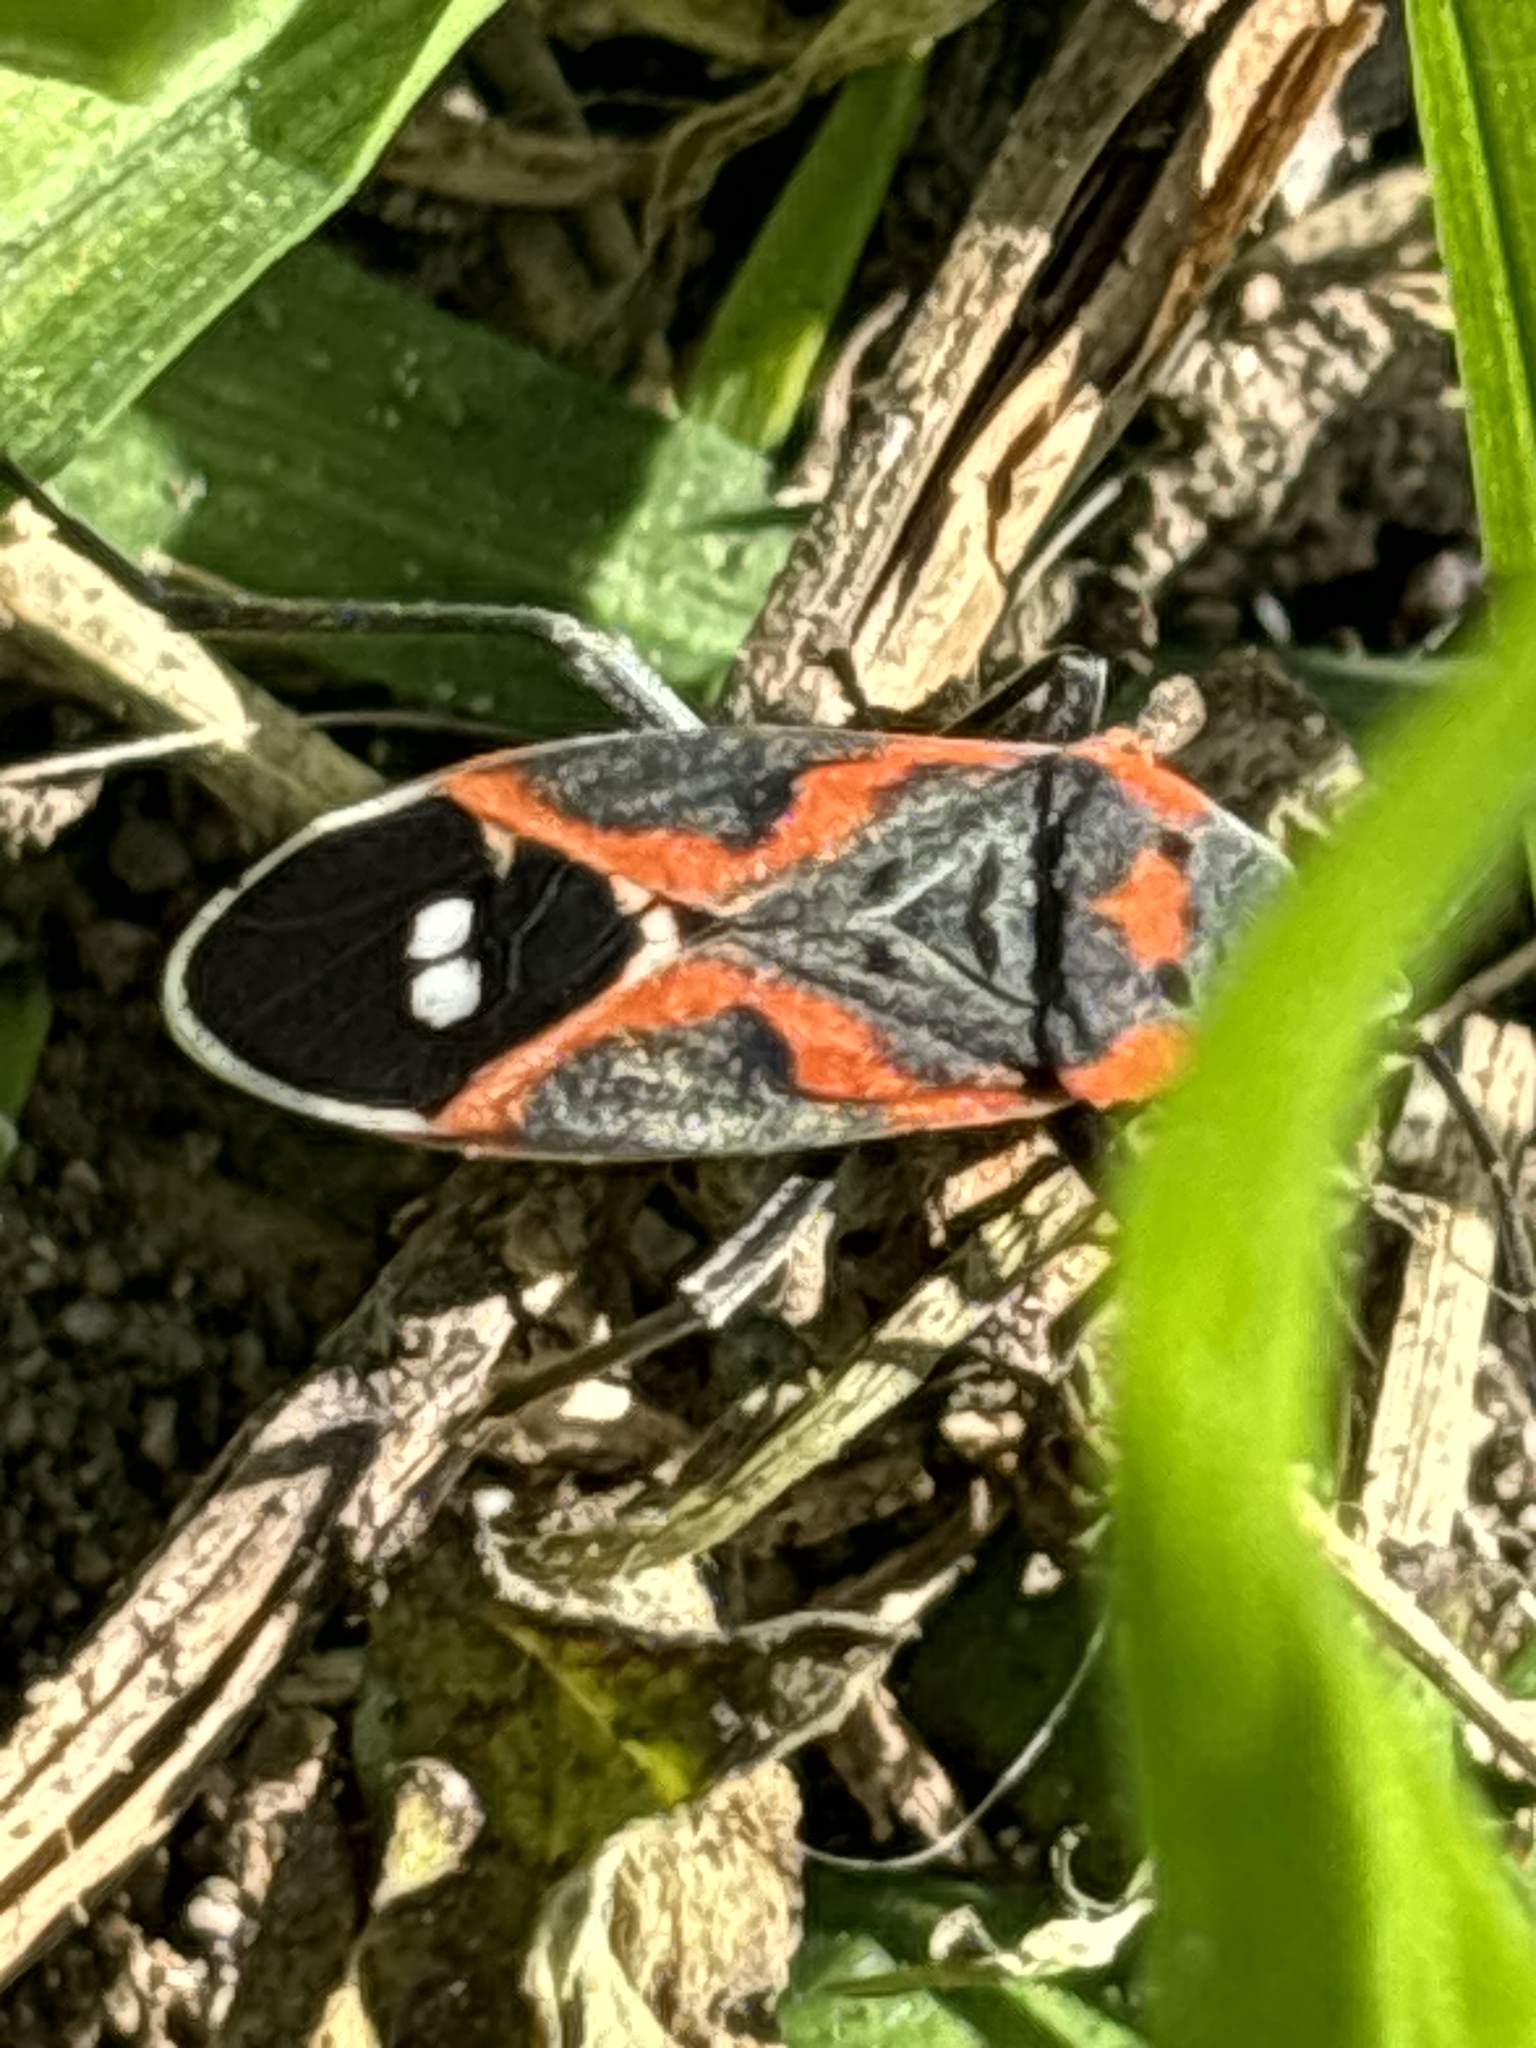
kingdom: Animalia
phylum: Arthropoda
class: Insecta
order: Hemiptera
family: Lygaeidae
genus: Lygaeus
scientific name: Lygaeus kalmii
